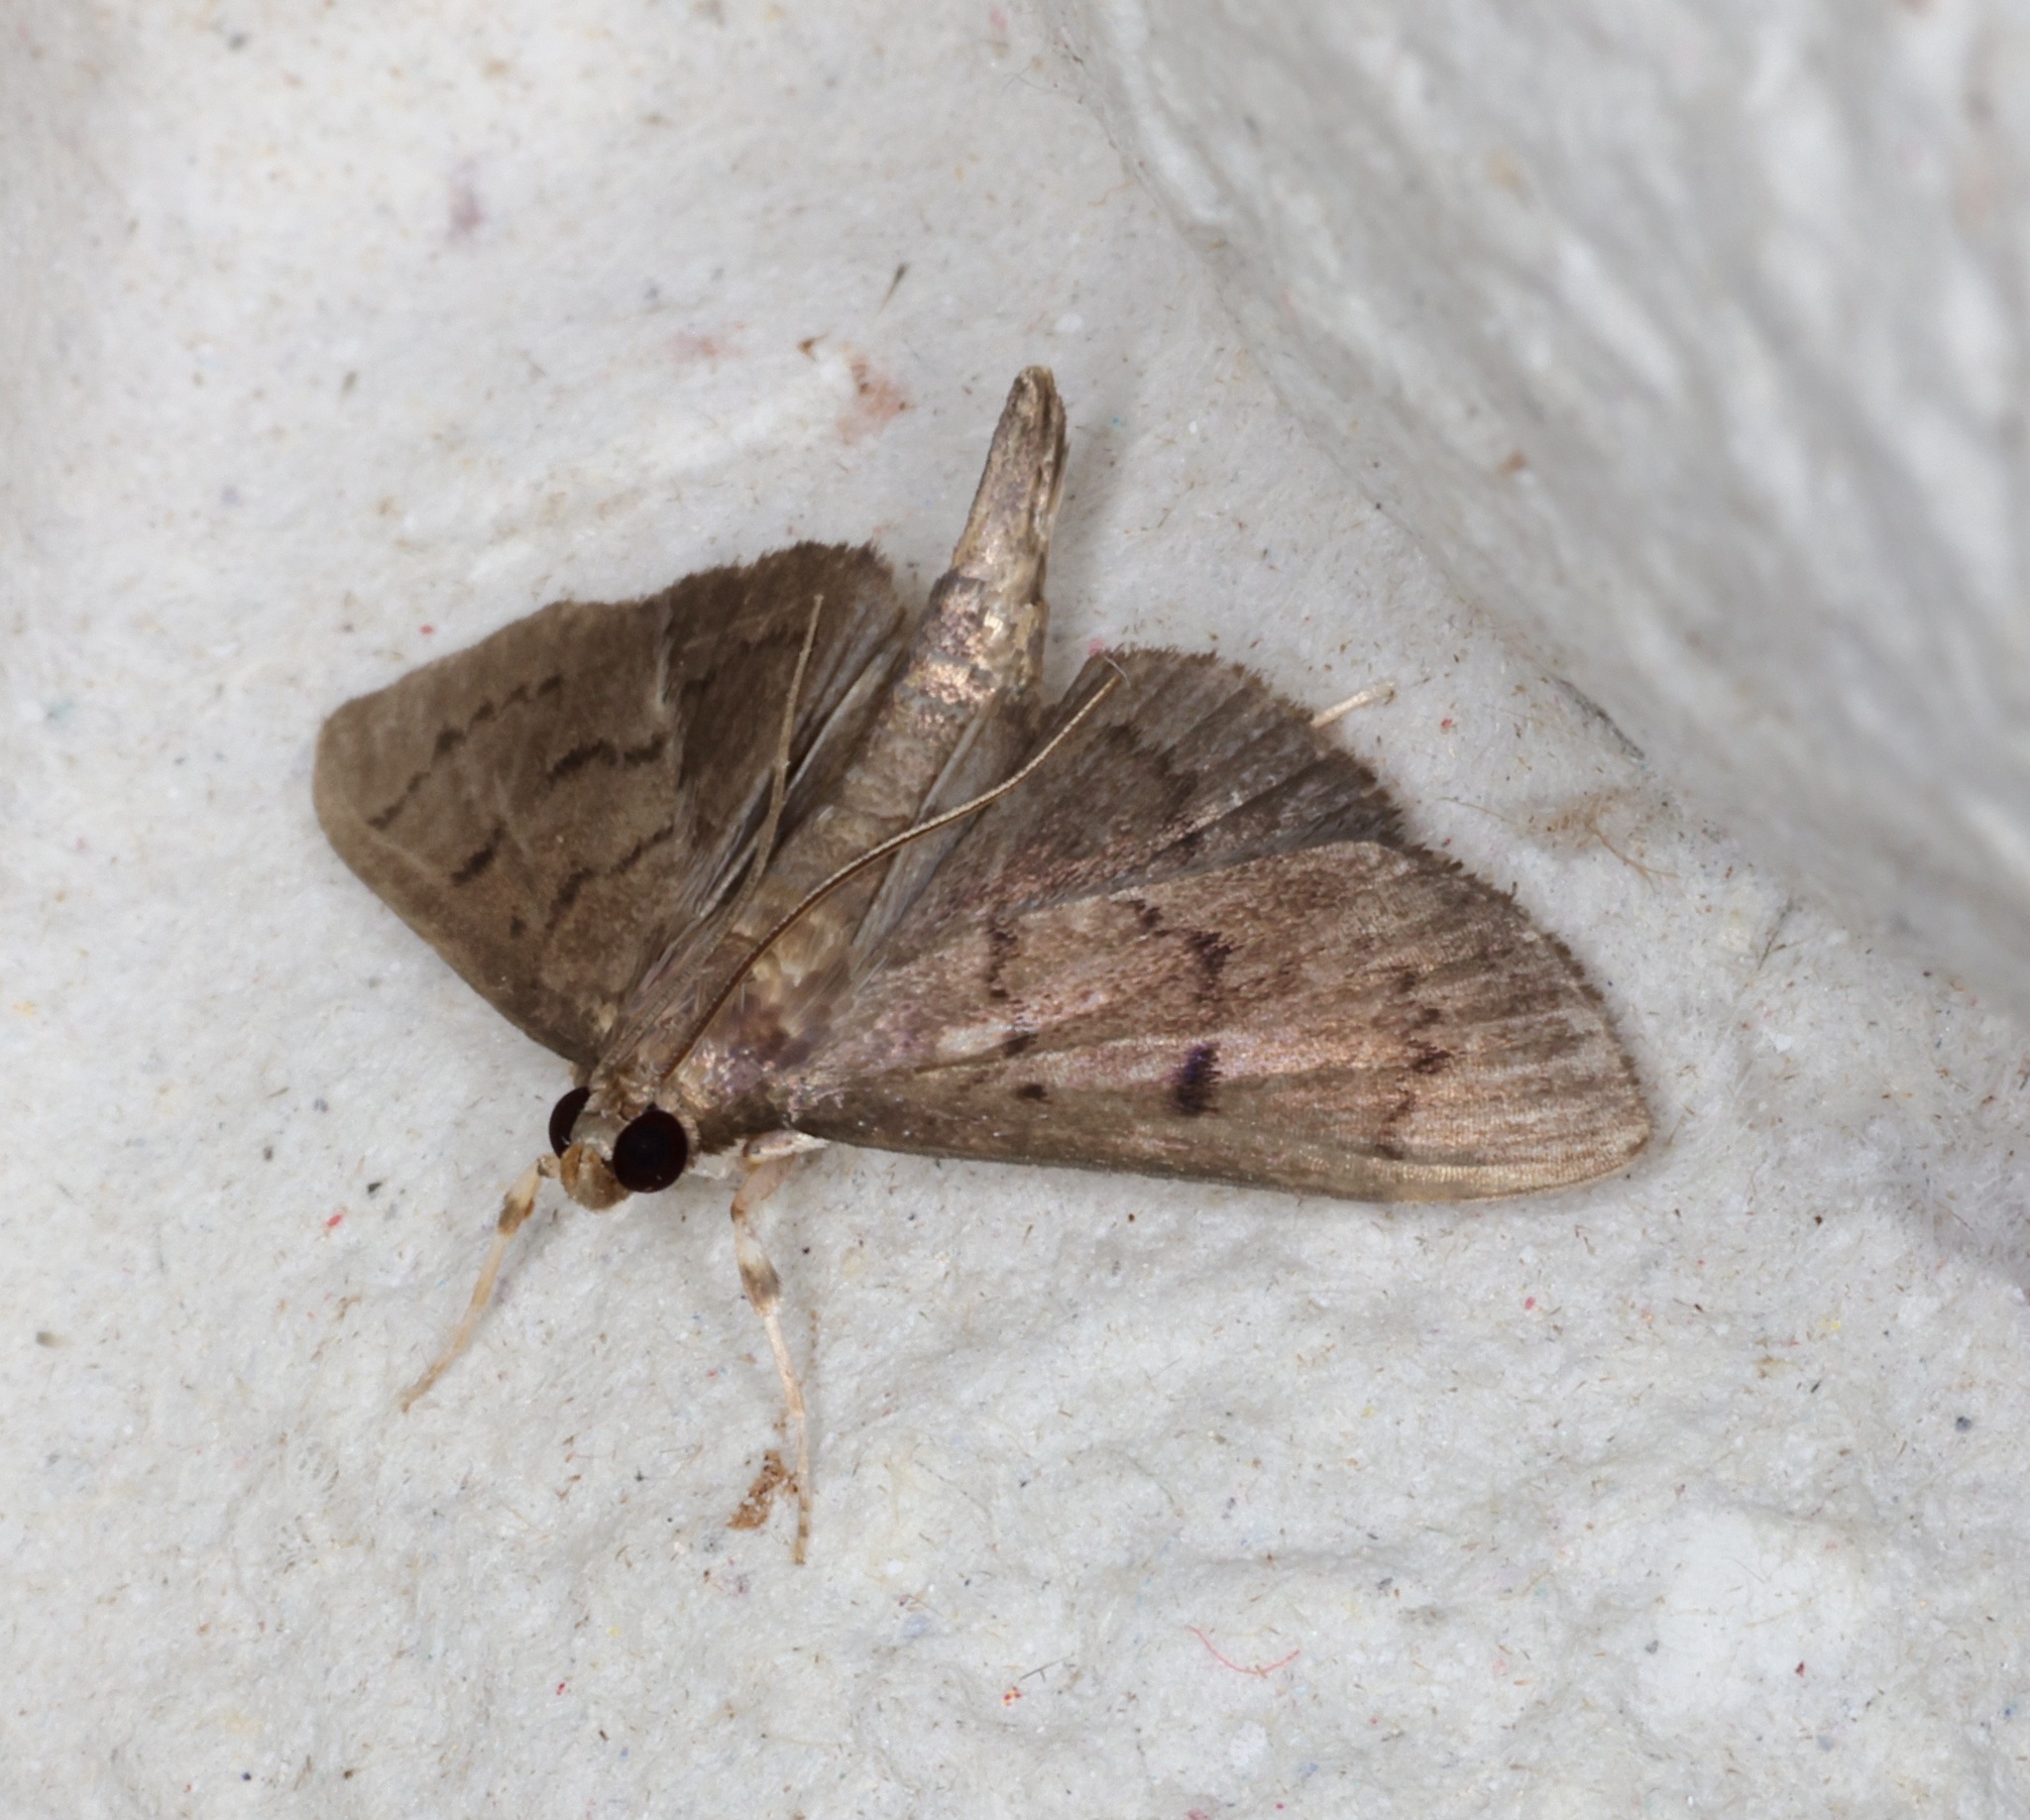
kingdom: Animalia
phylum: Arthropoda
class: Insecta
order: Lepidoptera
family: Crambidae
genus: Lamprosema
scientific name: Lamprosema tristrialis
